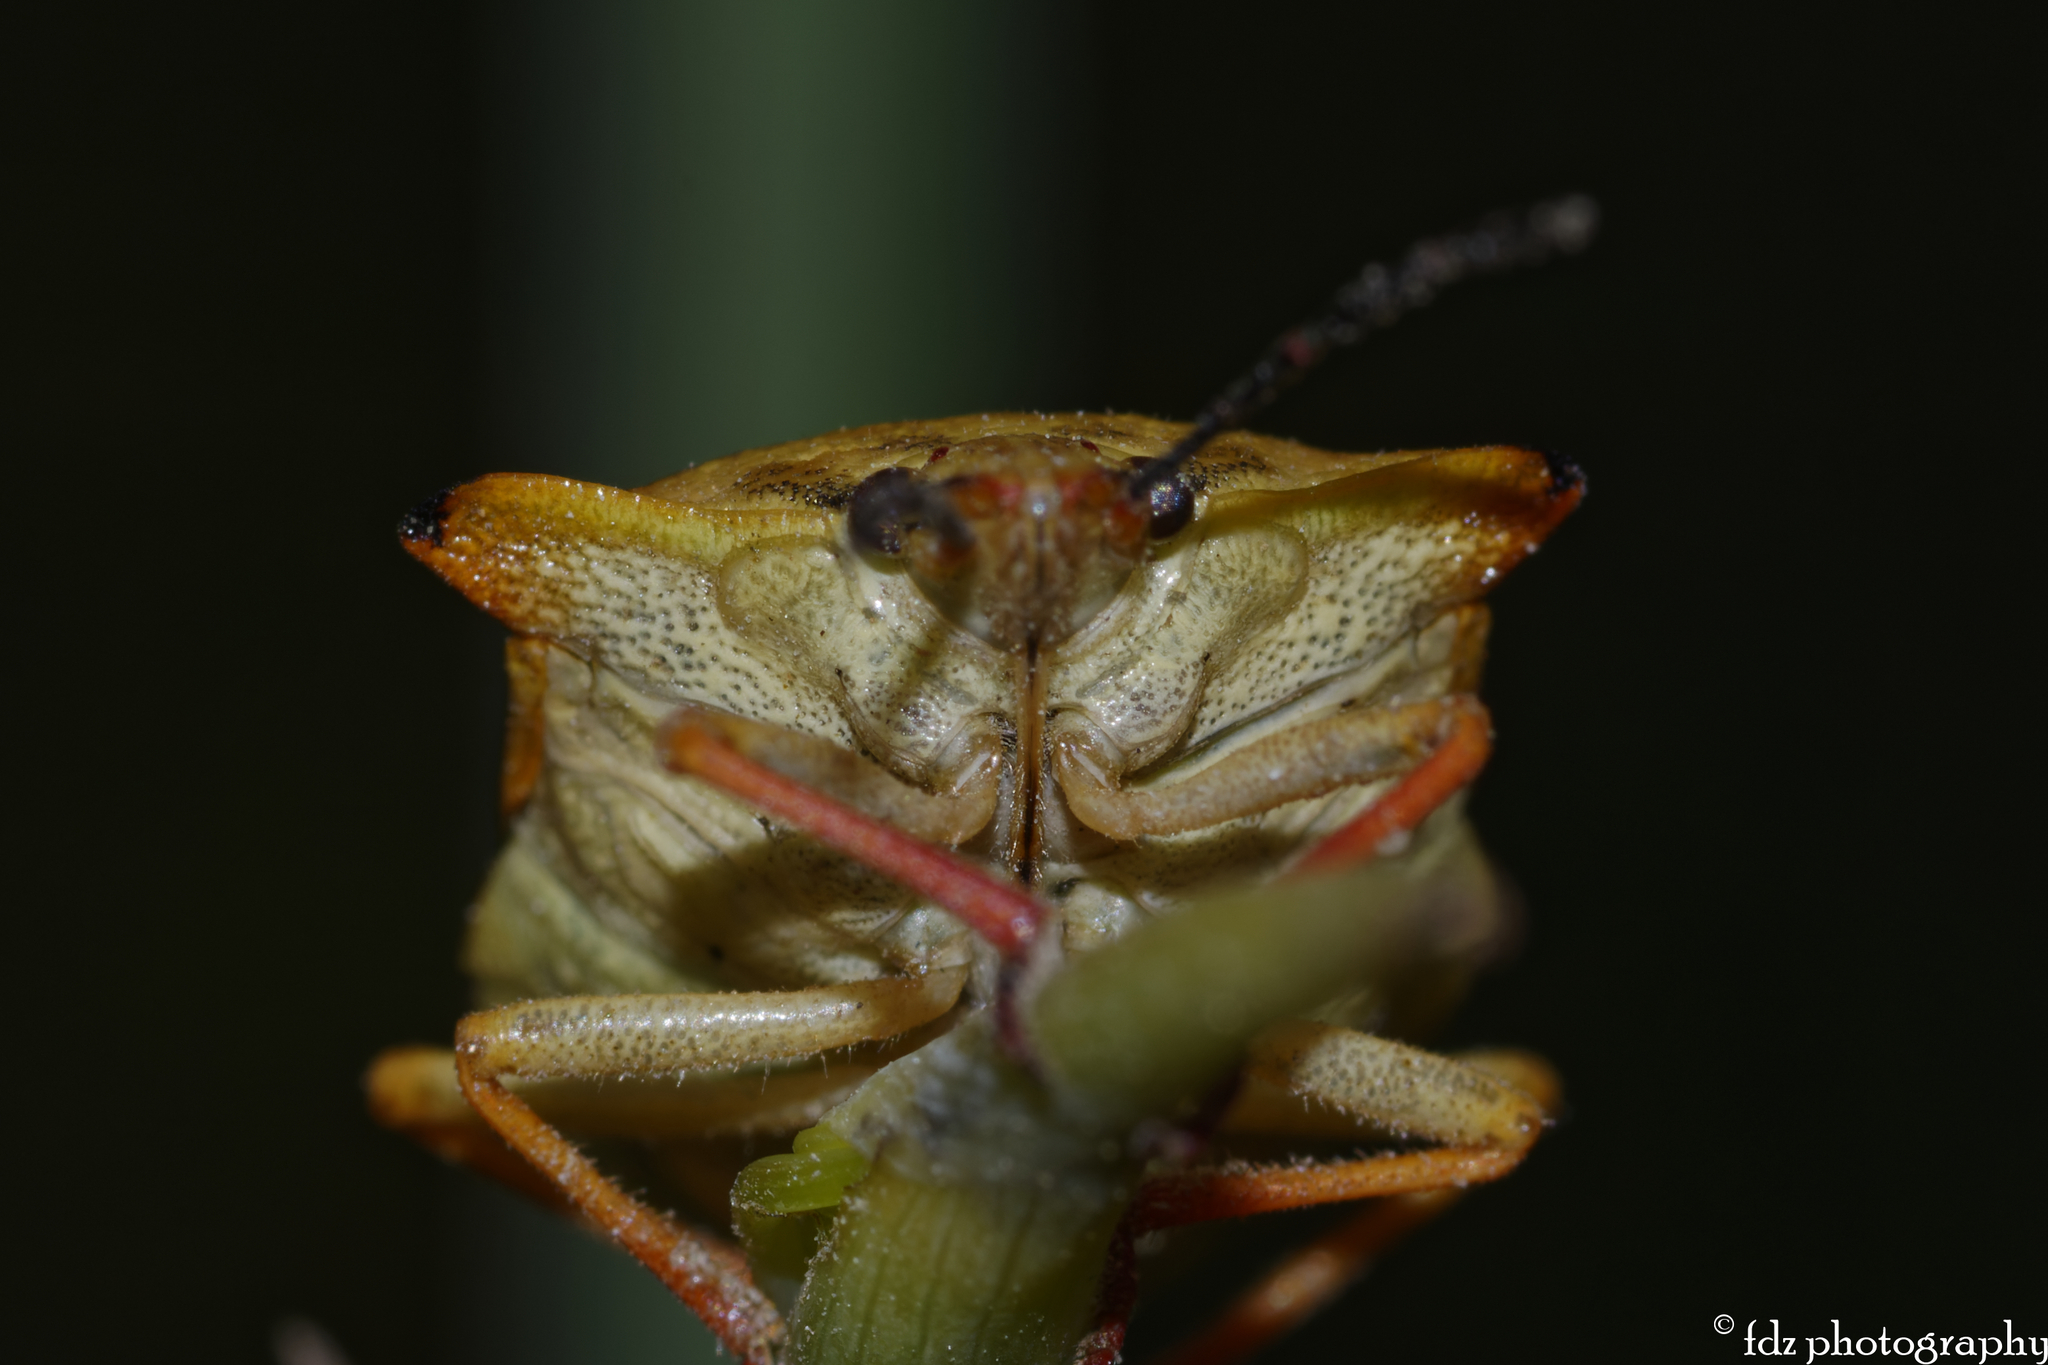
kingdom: Animalia
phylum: Arthropoda
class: Insecta
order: Hemiptera
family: Pentatomidae
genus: Carpocoris
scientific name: Carpocoris mediterraneus
